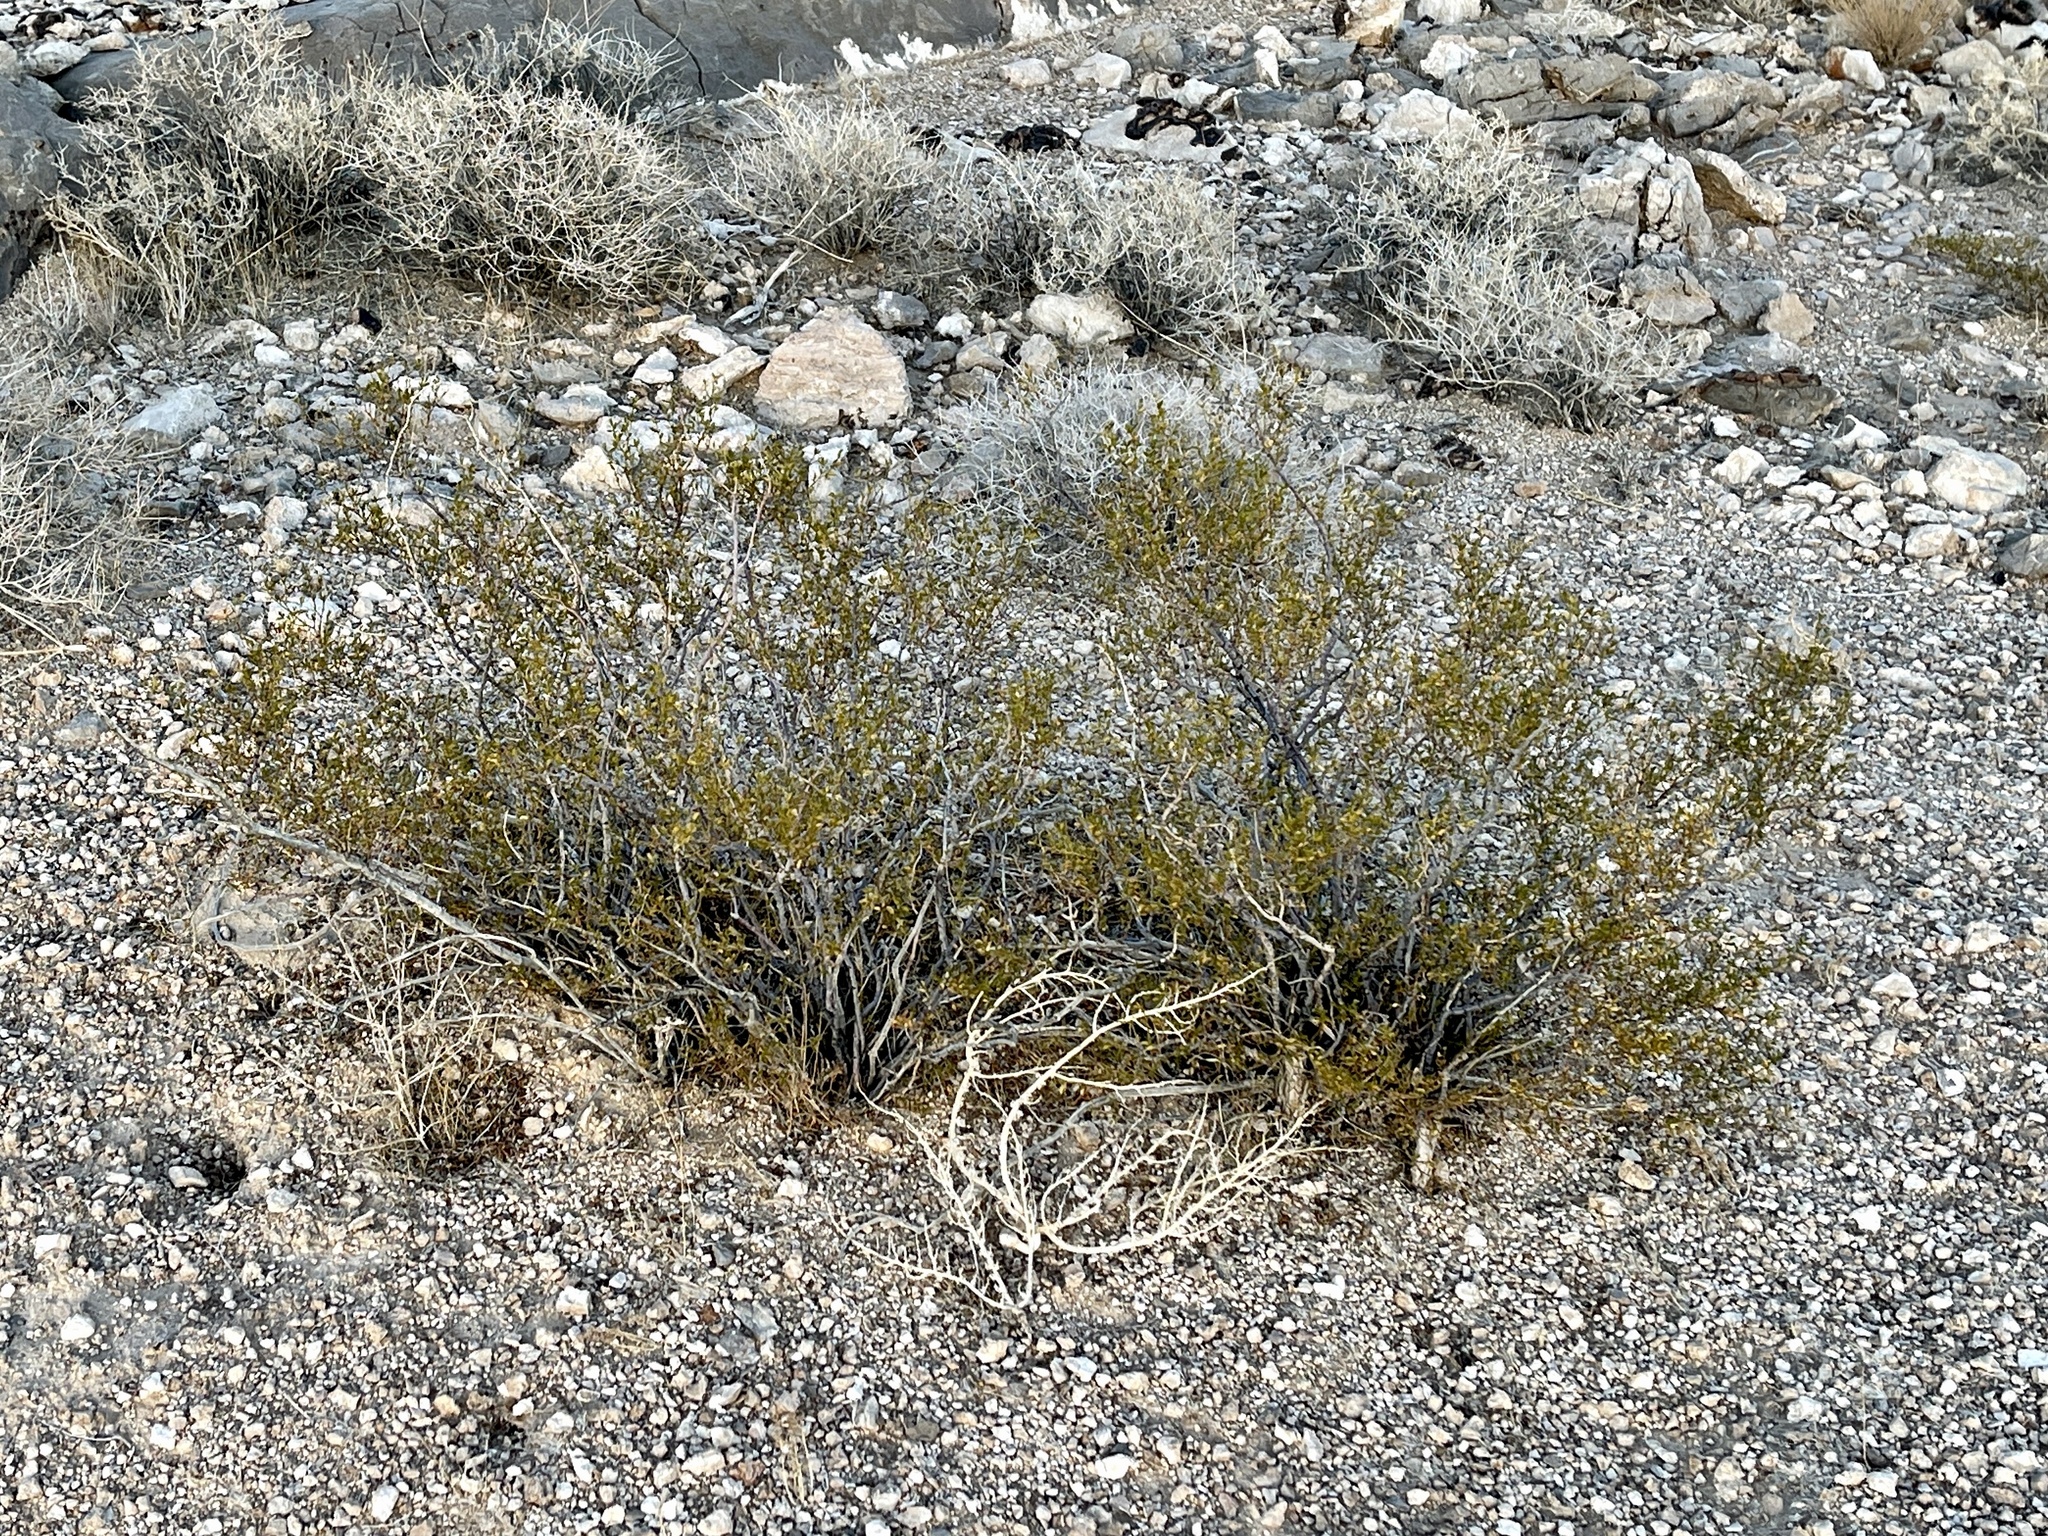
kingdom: Plantae
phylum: Tracheophyta
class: Magnoliopsida
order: Zygophyllales
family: Zygophyllaceae
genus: Larrea
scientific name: Larrea tridentata
